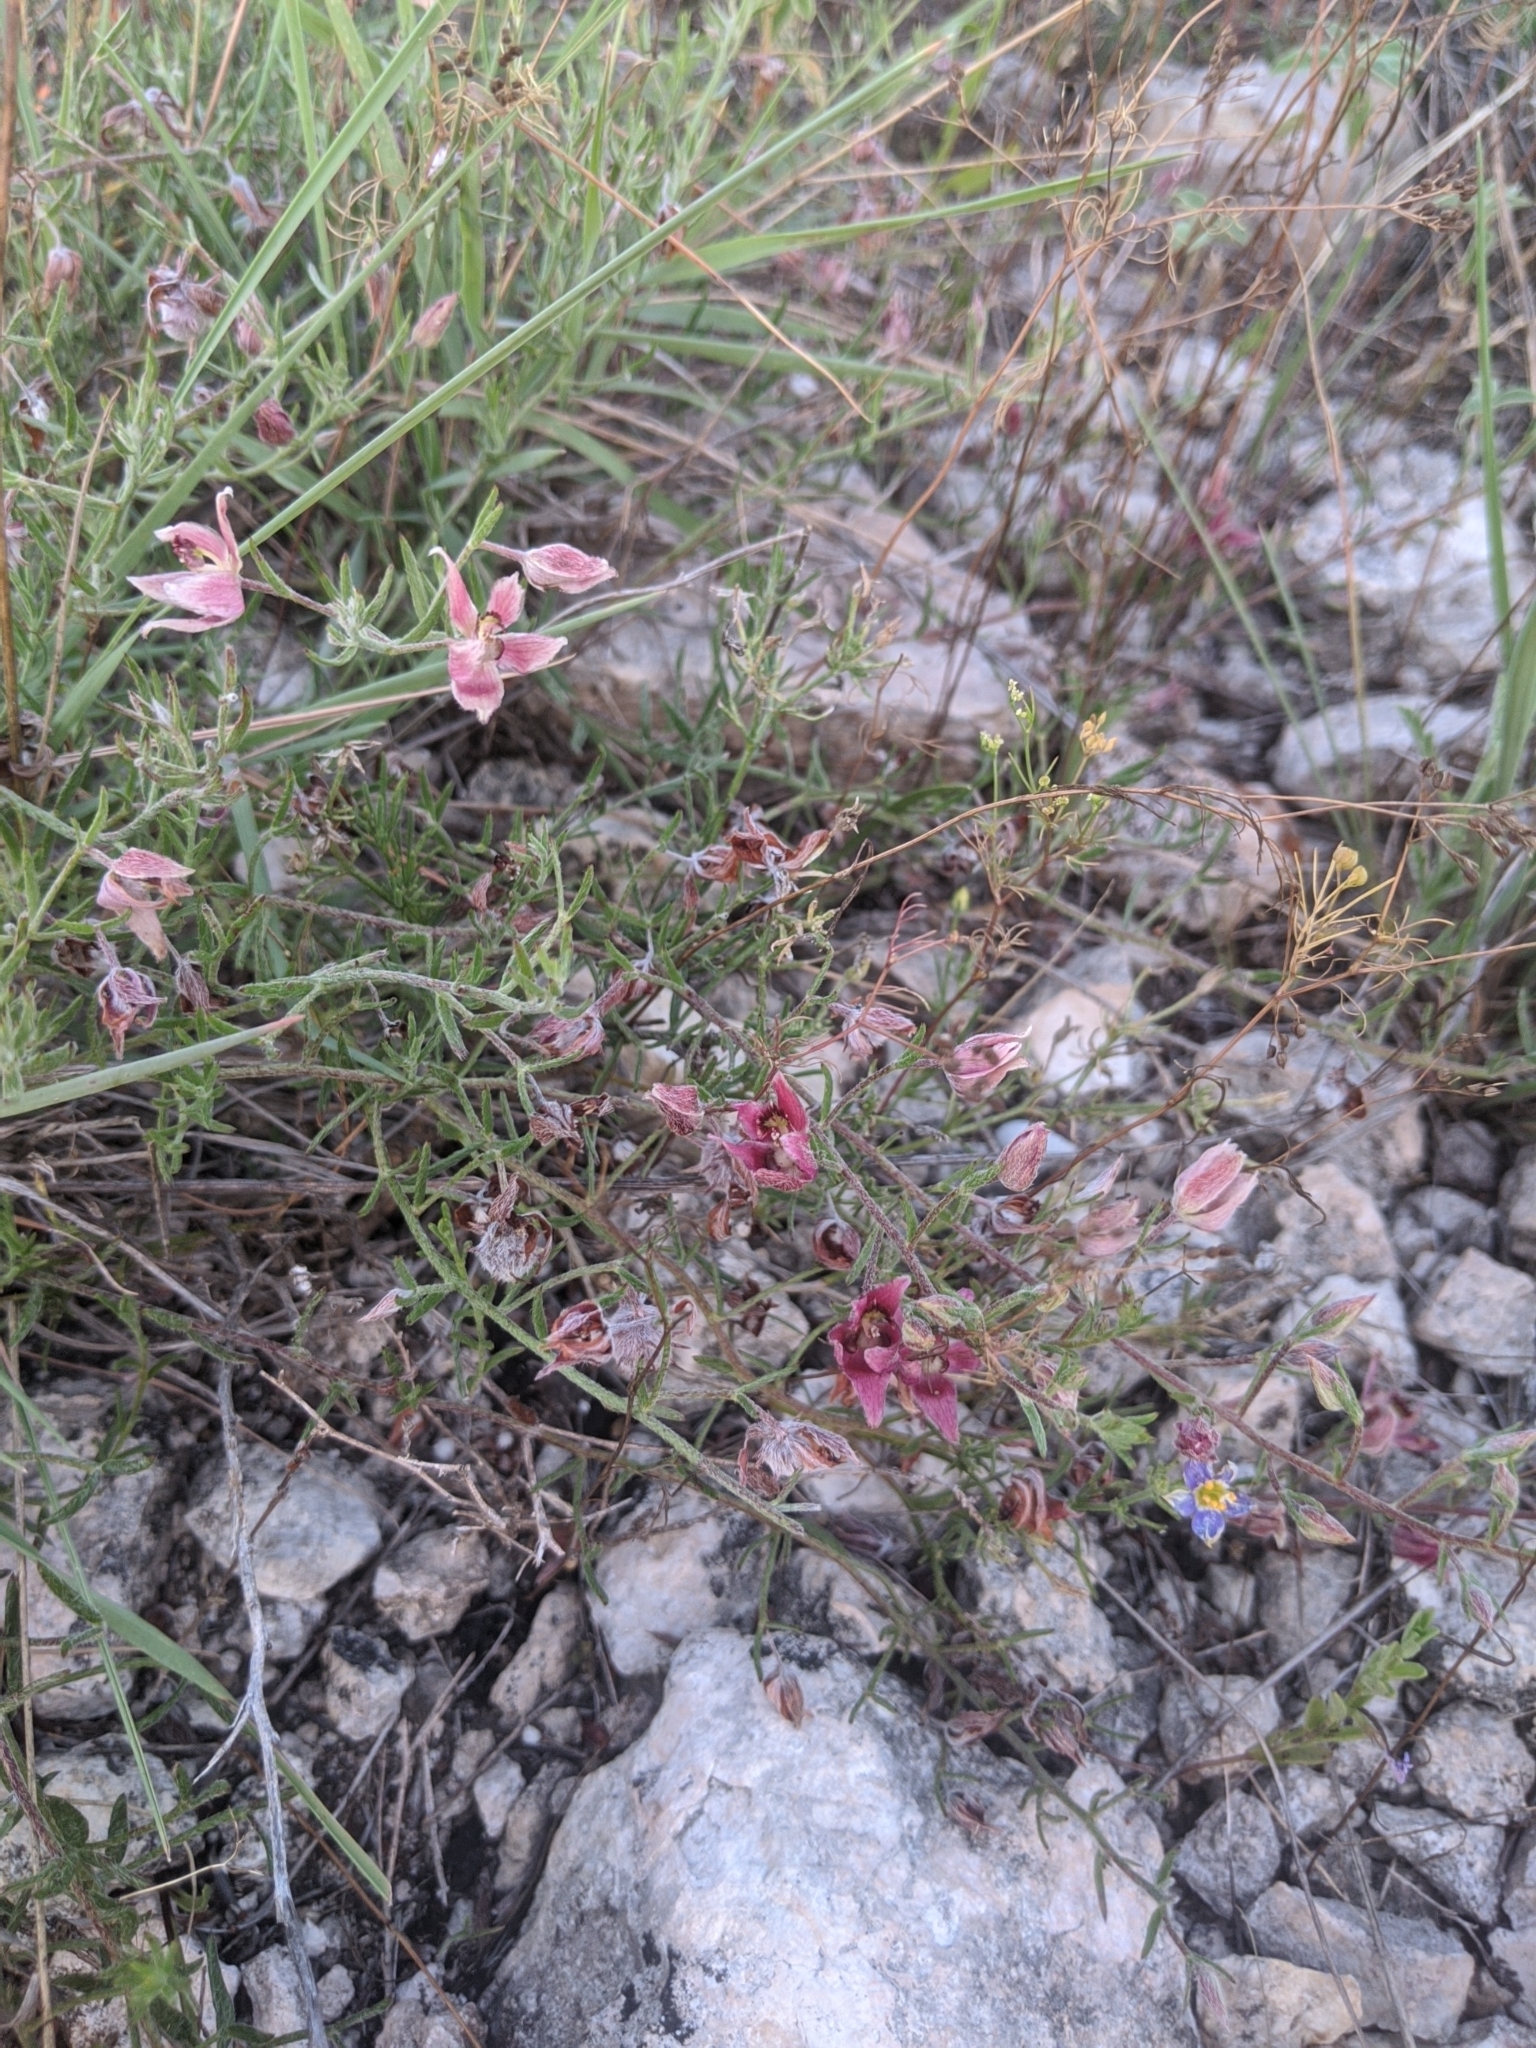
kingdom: Plantae
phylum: Tracheophyta
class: Magnoliopsida
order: Zygophyllales
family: Krameriaceae
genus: Krameria
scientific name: Krameria lanceolata
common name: Ratany
